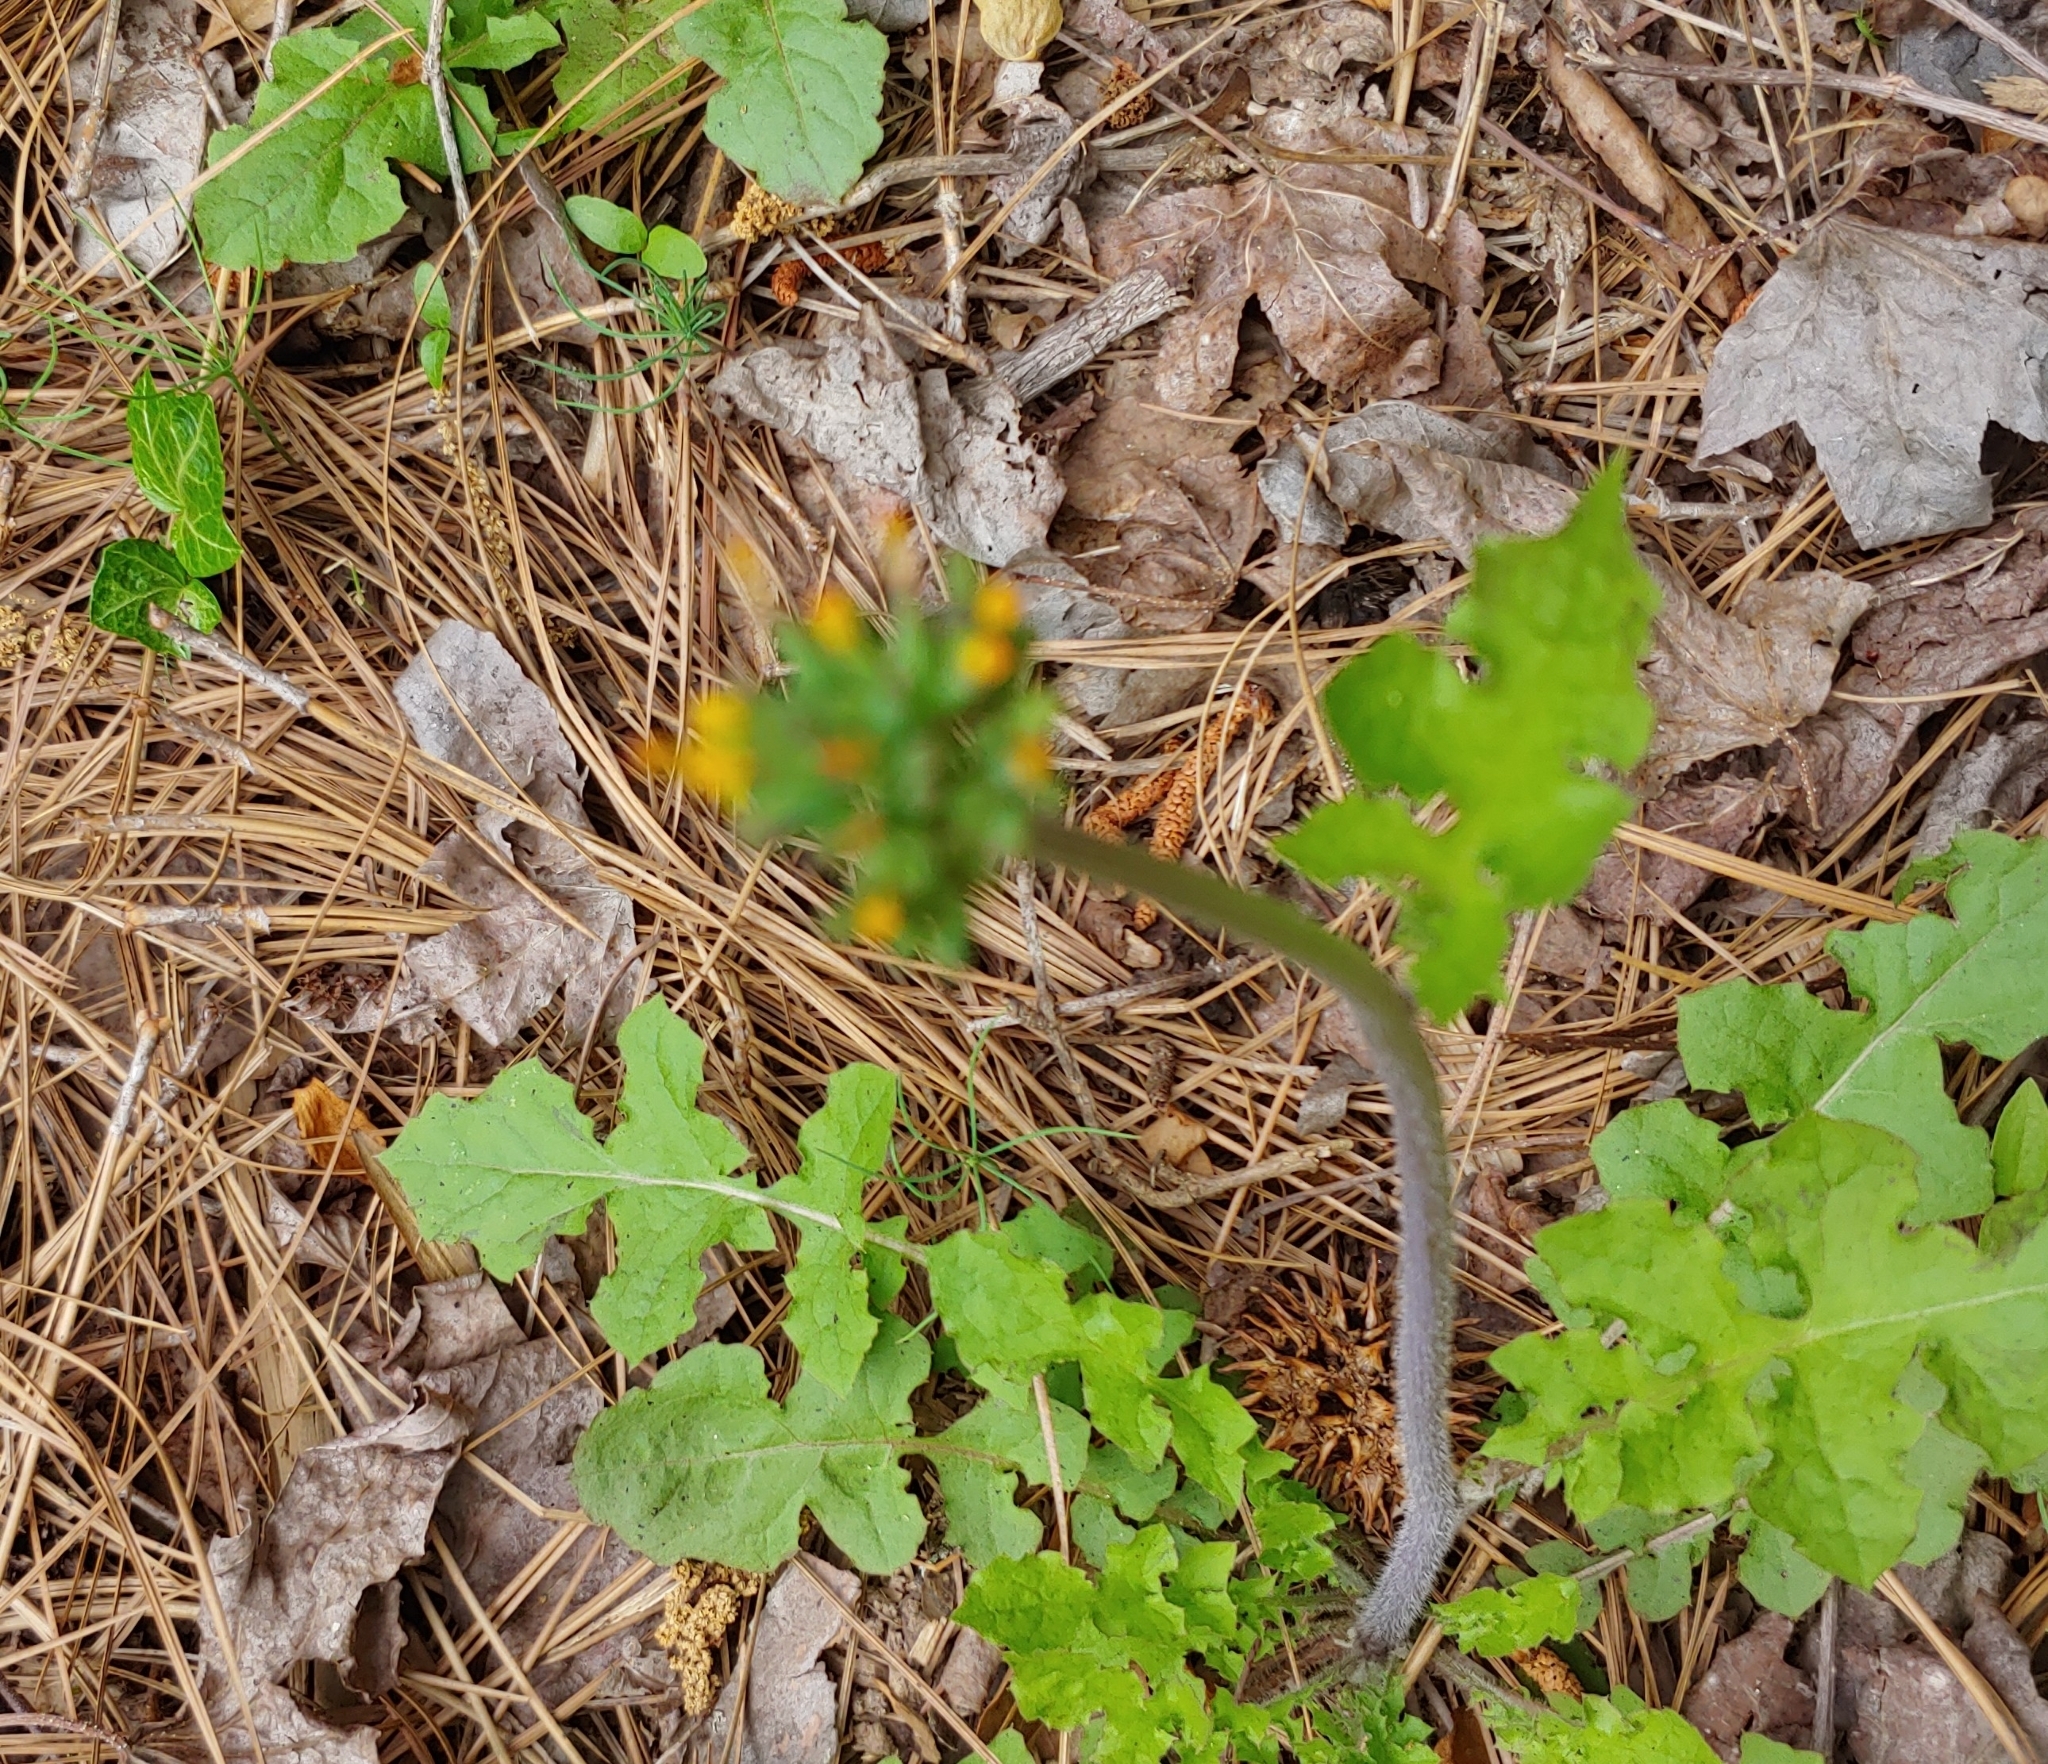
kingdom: Plantae
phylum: Tracheophyta
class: Magnoliopsida
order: Asterales
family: Asteraceae
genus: Youngia
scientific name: Youngia japonica
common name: Oriental false hawksbeard
